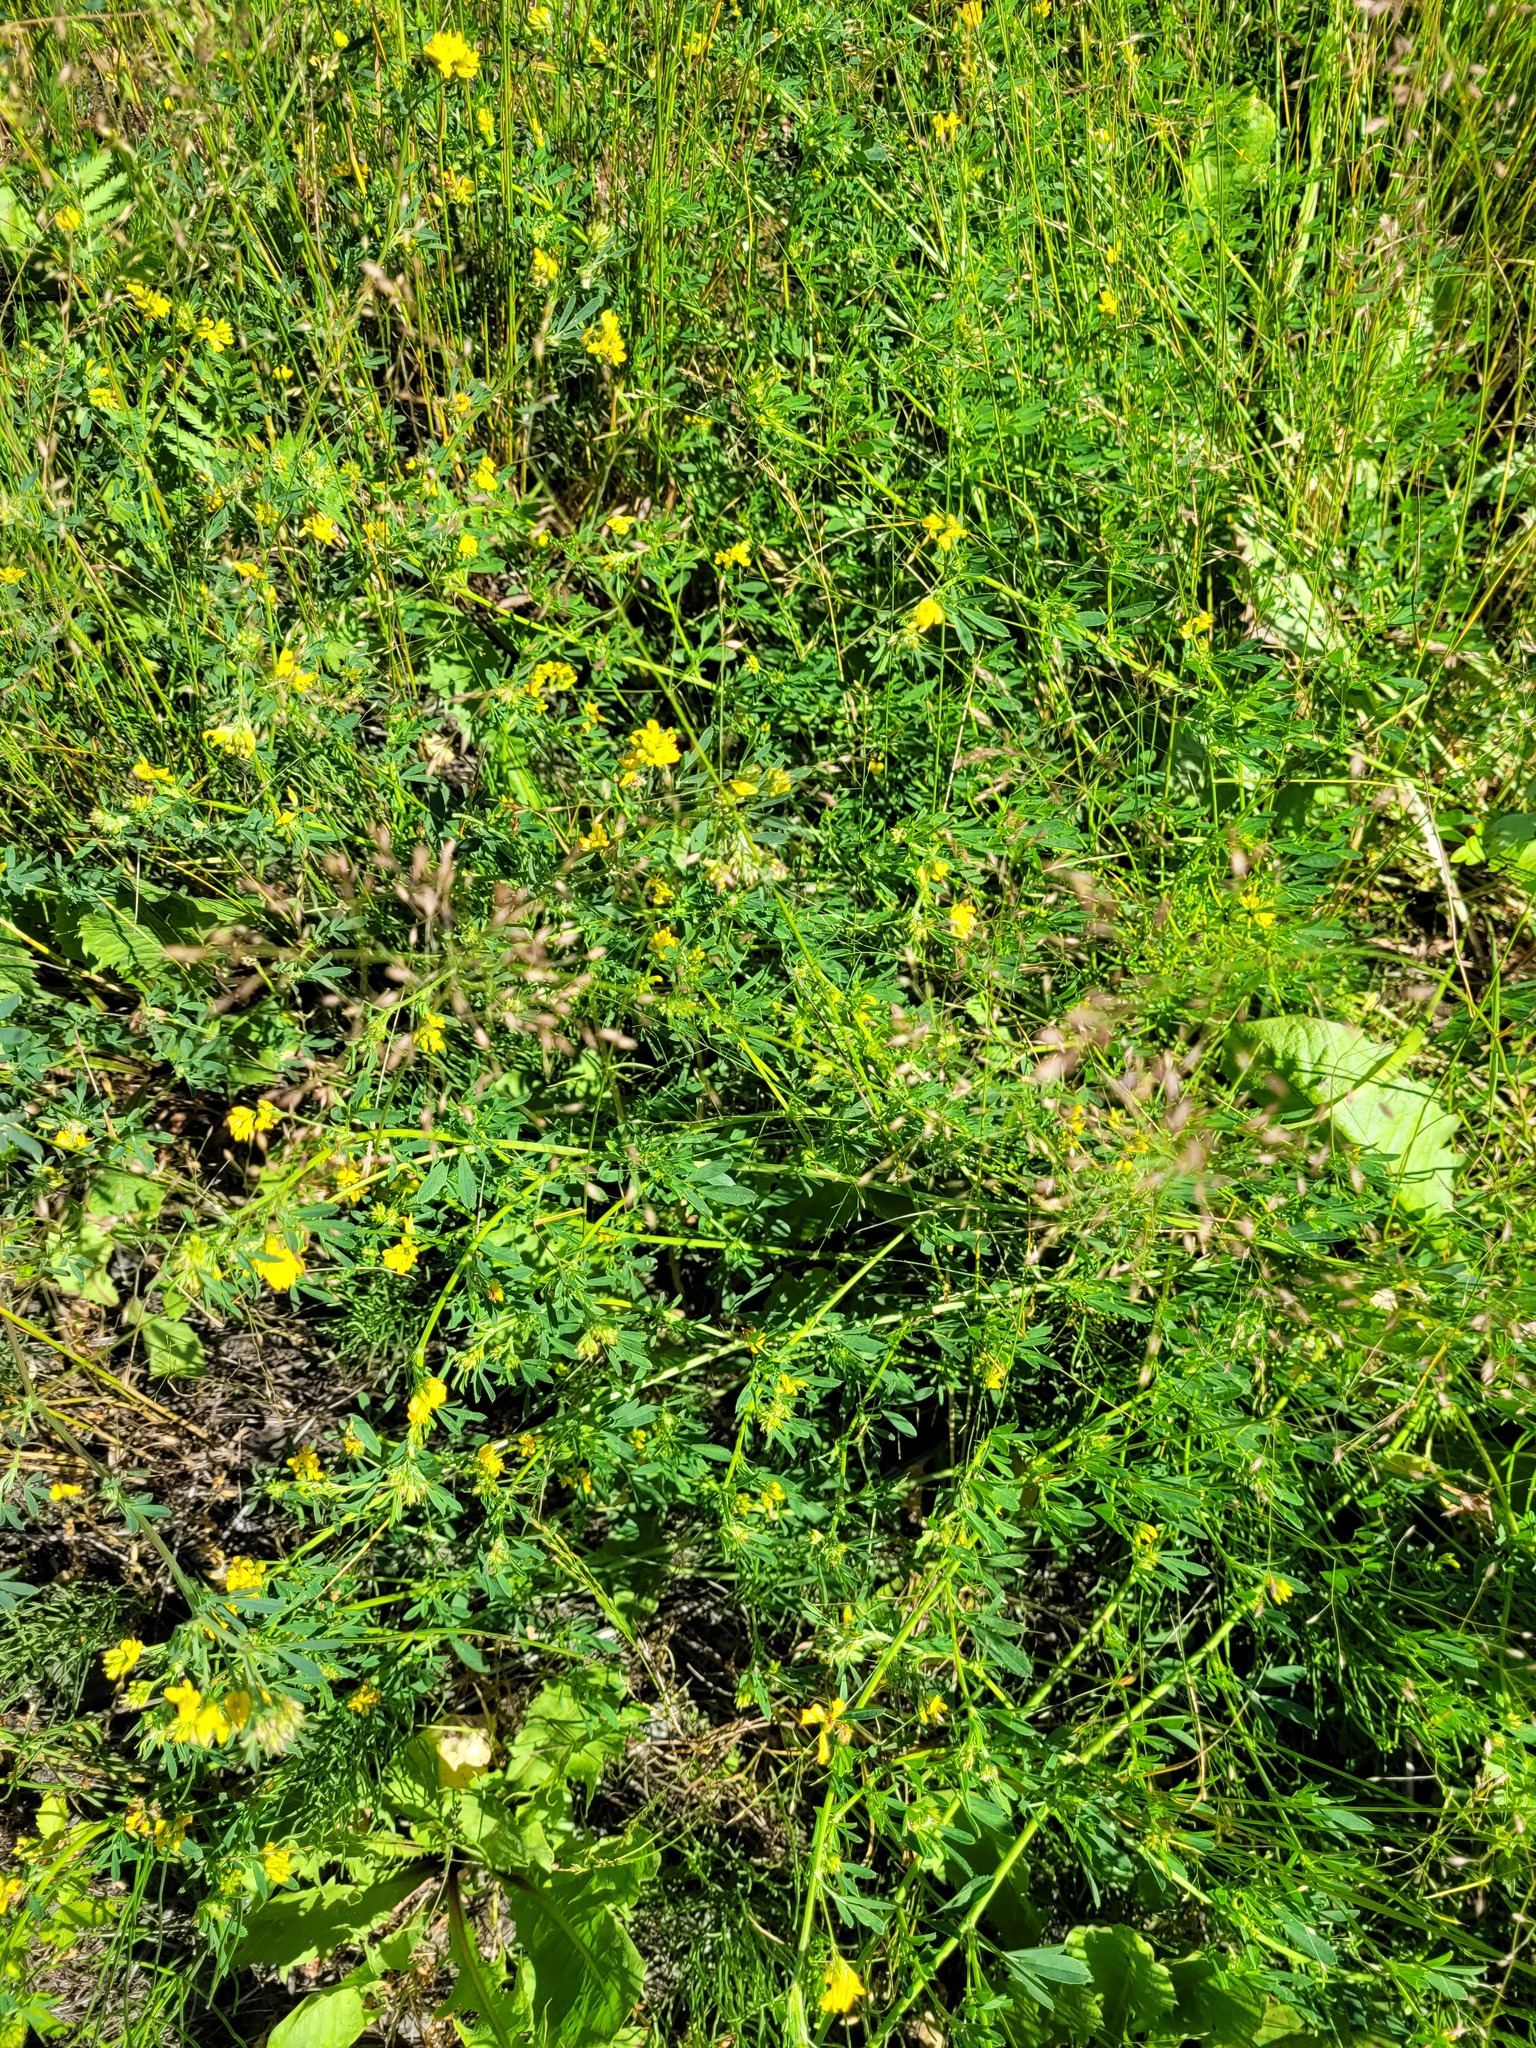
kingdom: Plantae
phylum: Tracheophyta
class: Magnoliopsida
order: Fabales
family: Fabaceae
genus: Medicago
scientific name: Medicago falcata
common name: Sickle medick
